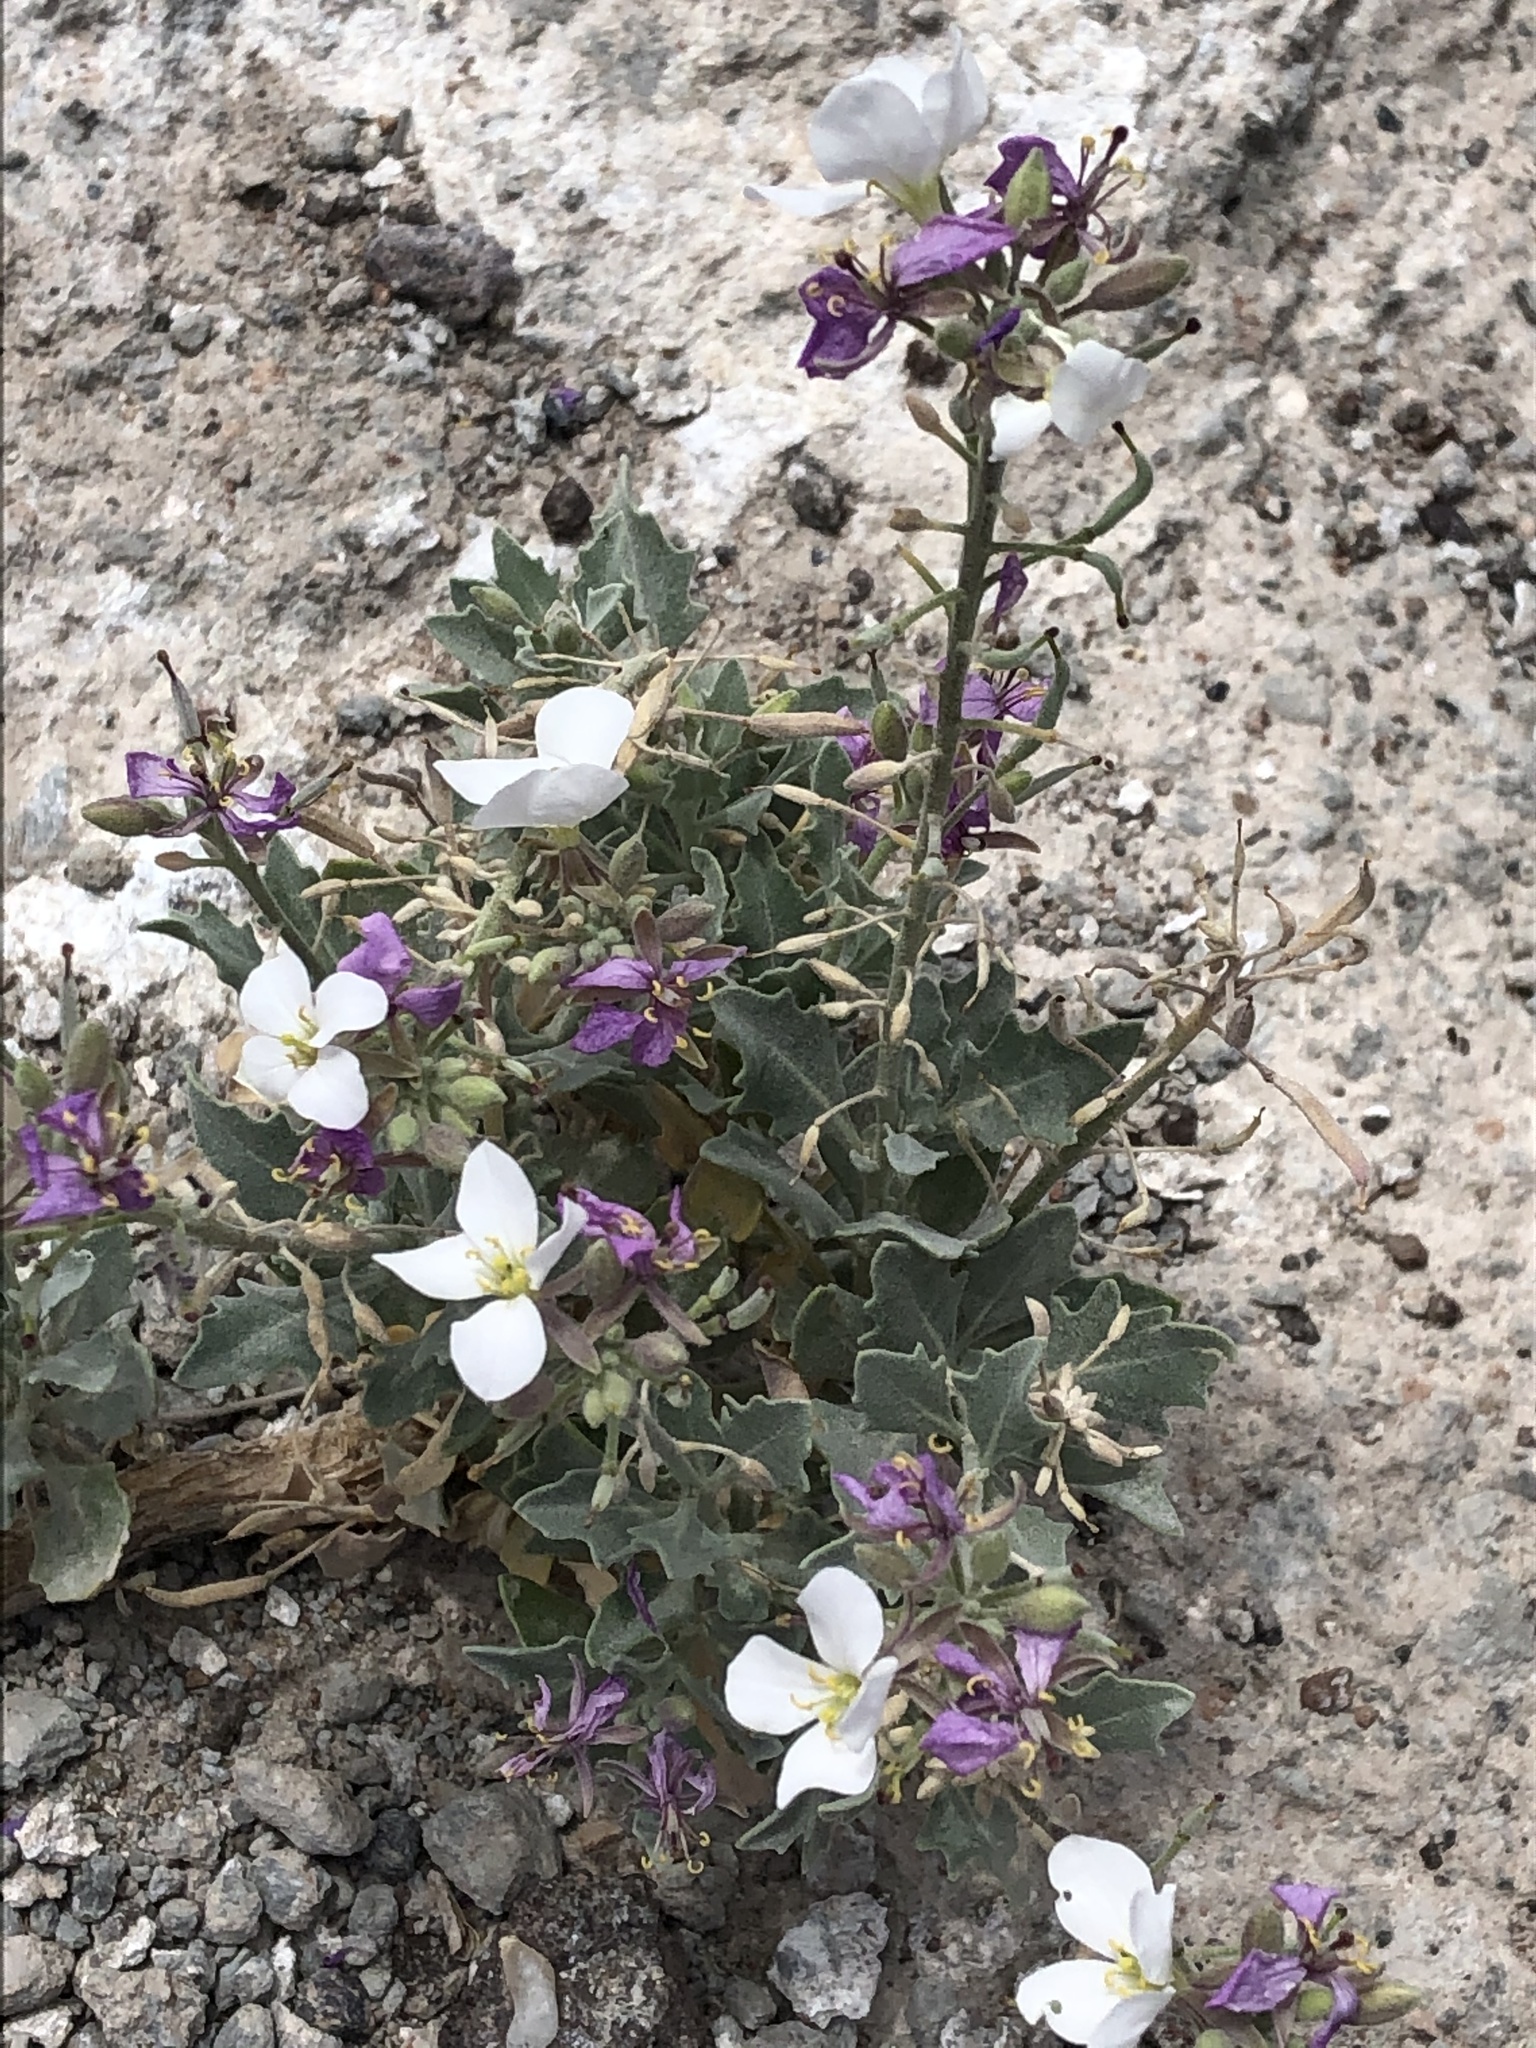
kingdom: Plantae
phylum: Tracheophyta
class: Magnoliopsida
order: Brassicales
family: Brassicaceae
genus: Nerisyrenia
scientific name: Nerisyrenia camporum
